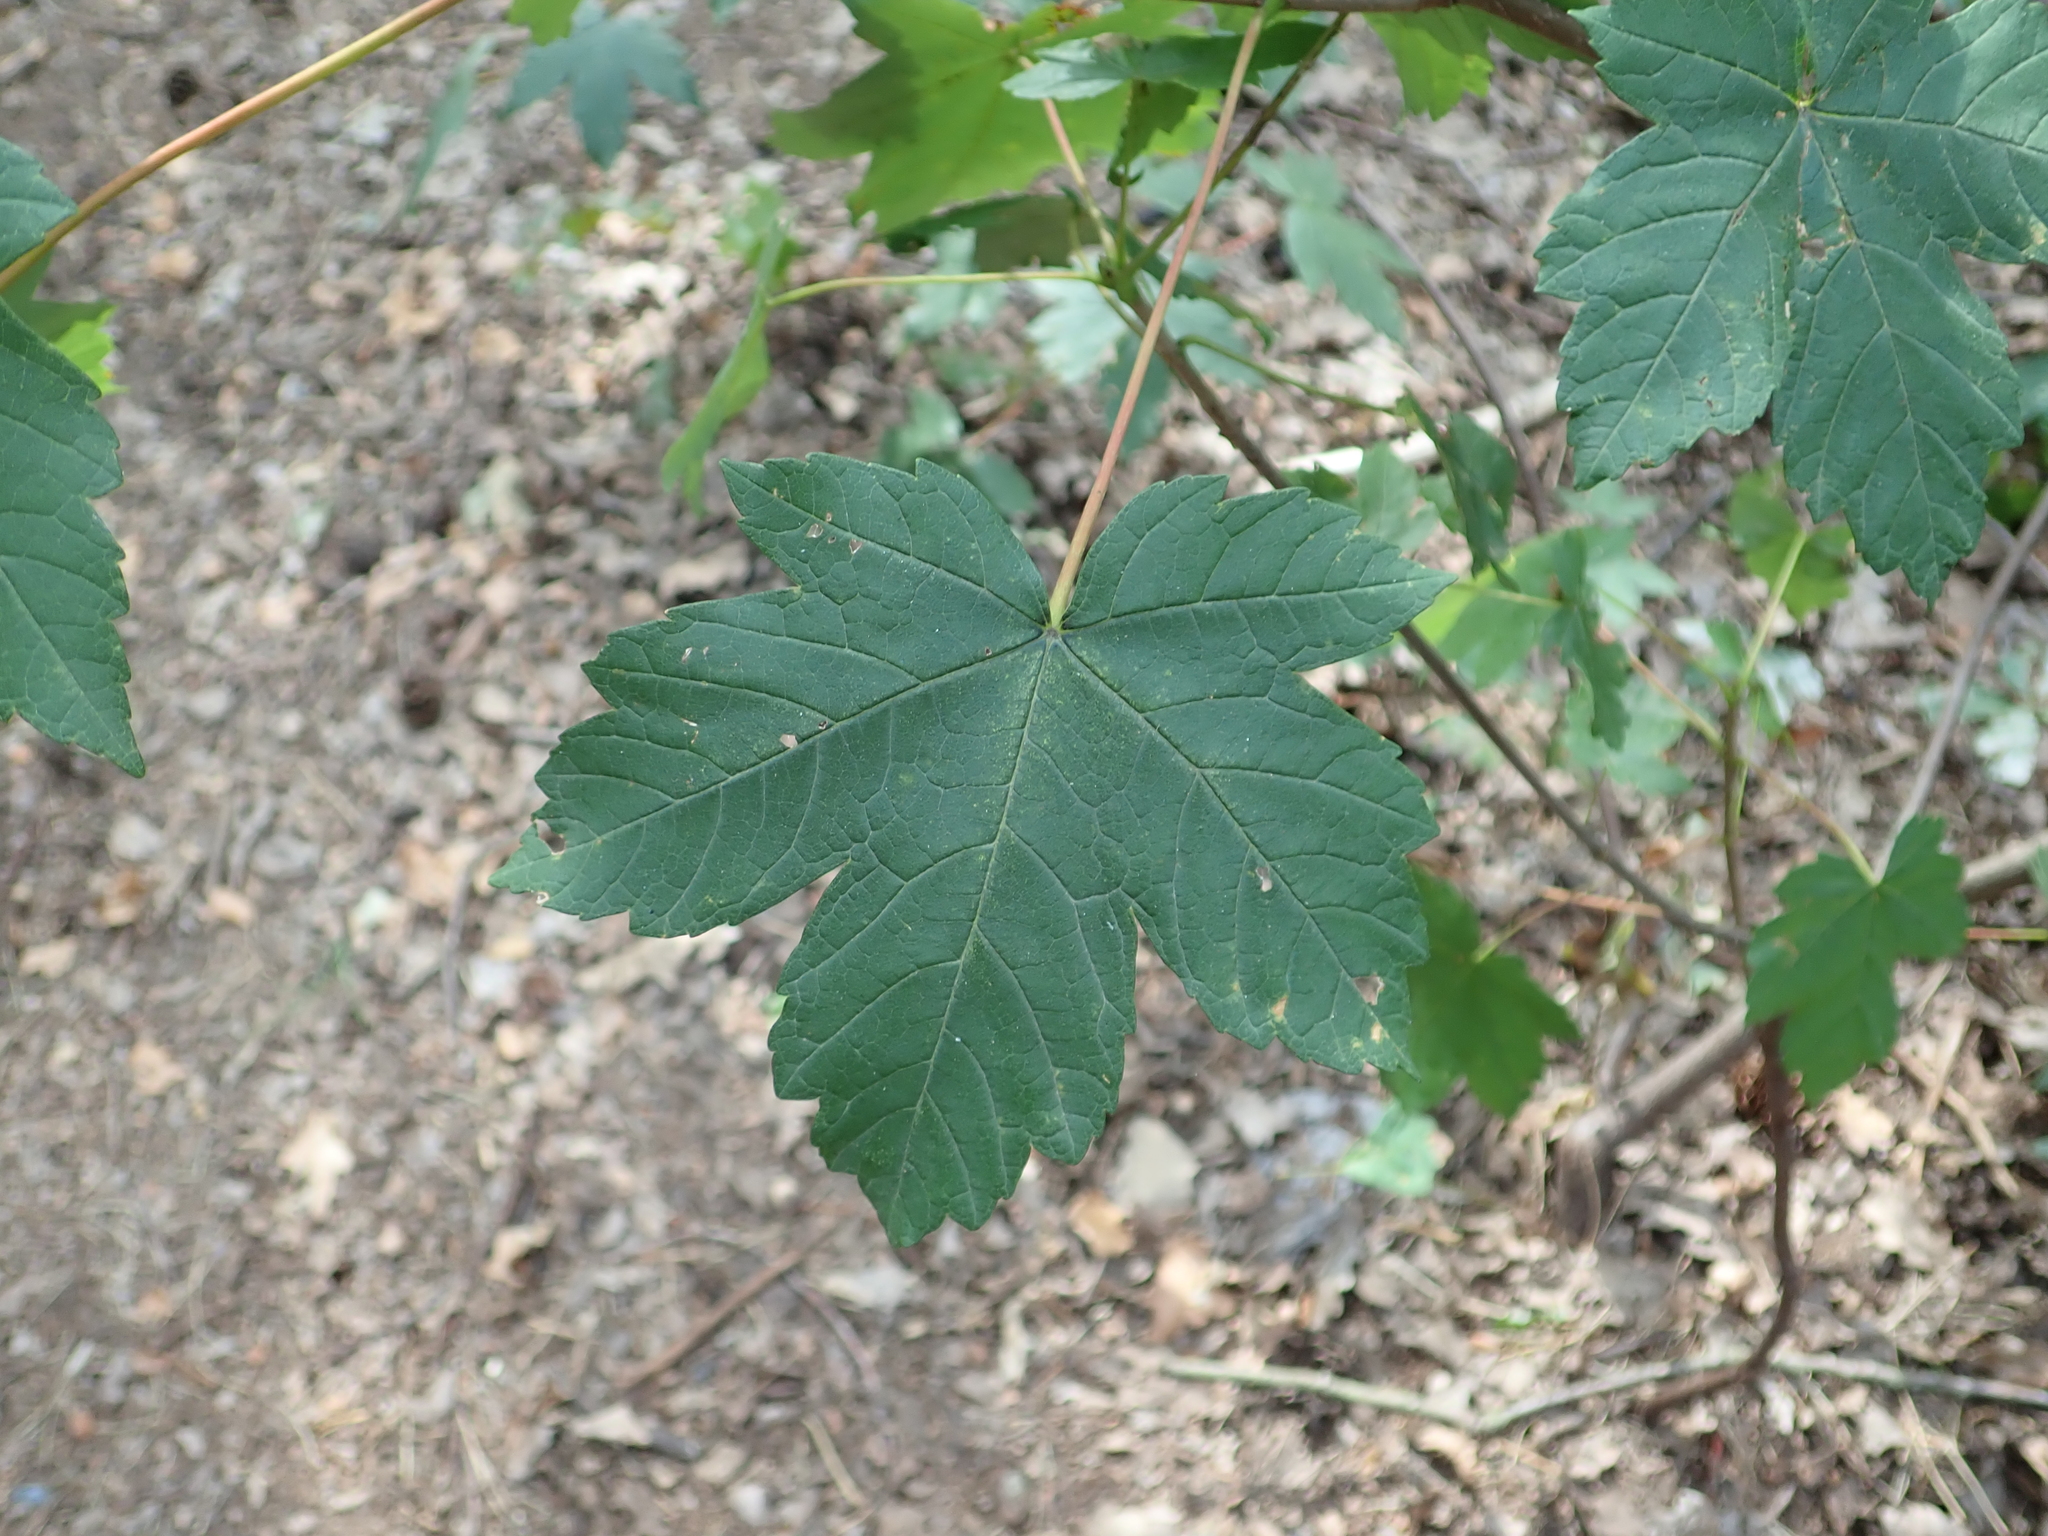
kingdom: Plantae
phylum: Tracheophyta
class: Magnoliopsida
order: Sapindales
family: Sapindaceae
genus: Acer
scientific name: Acer pseudoplatanus
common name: Sycamore
